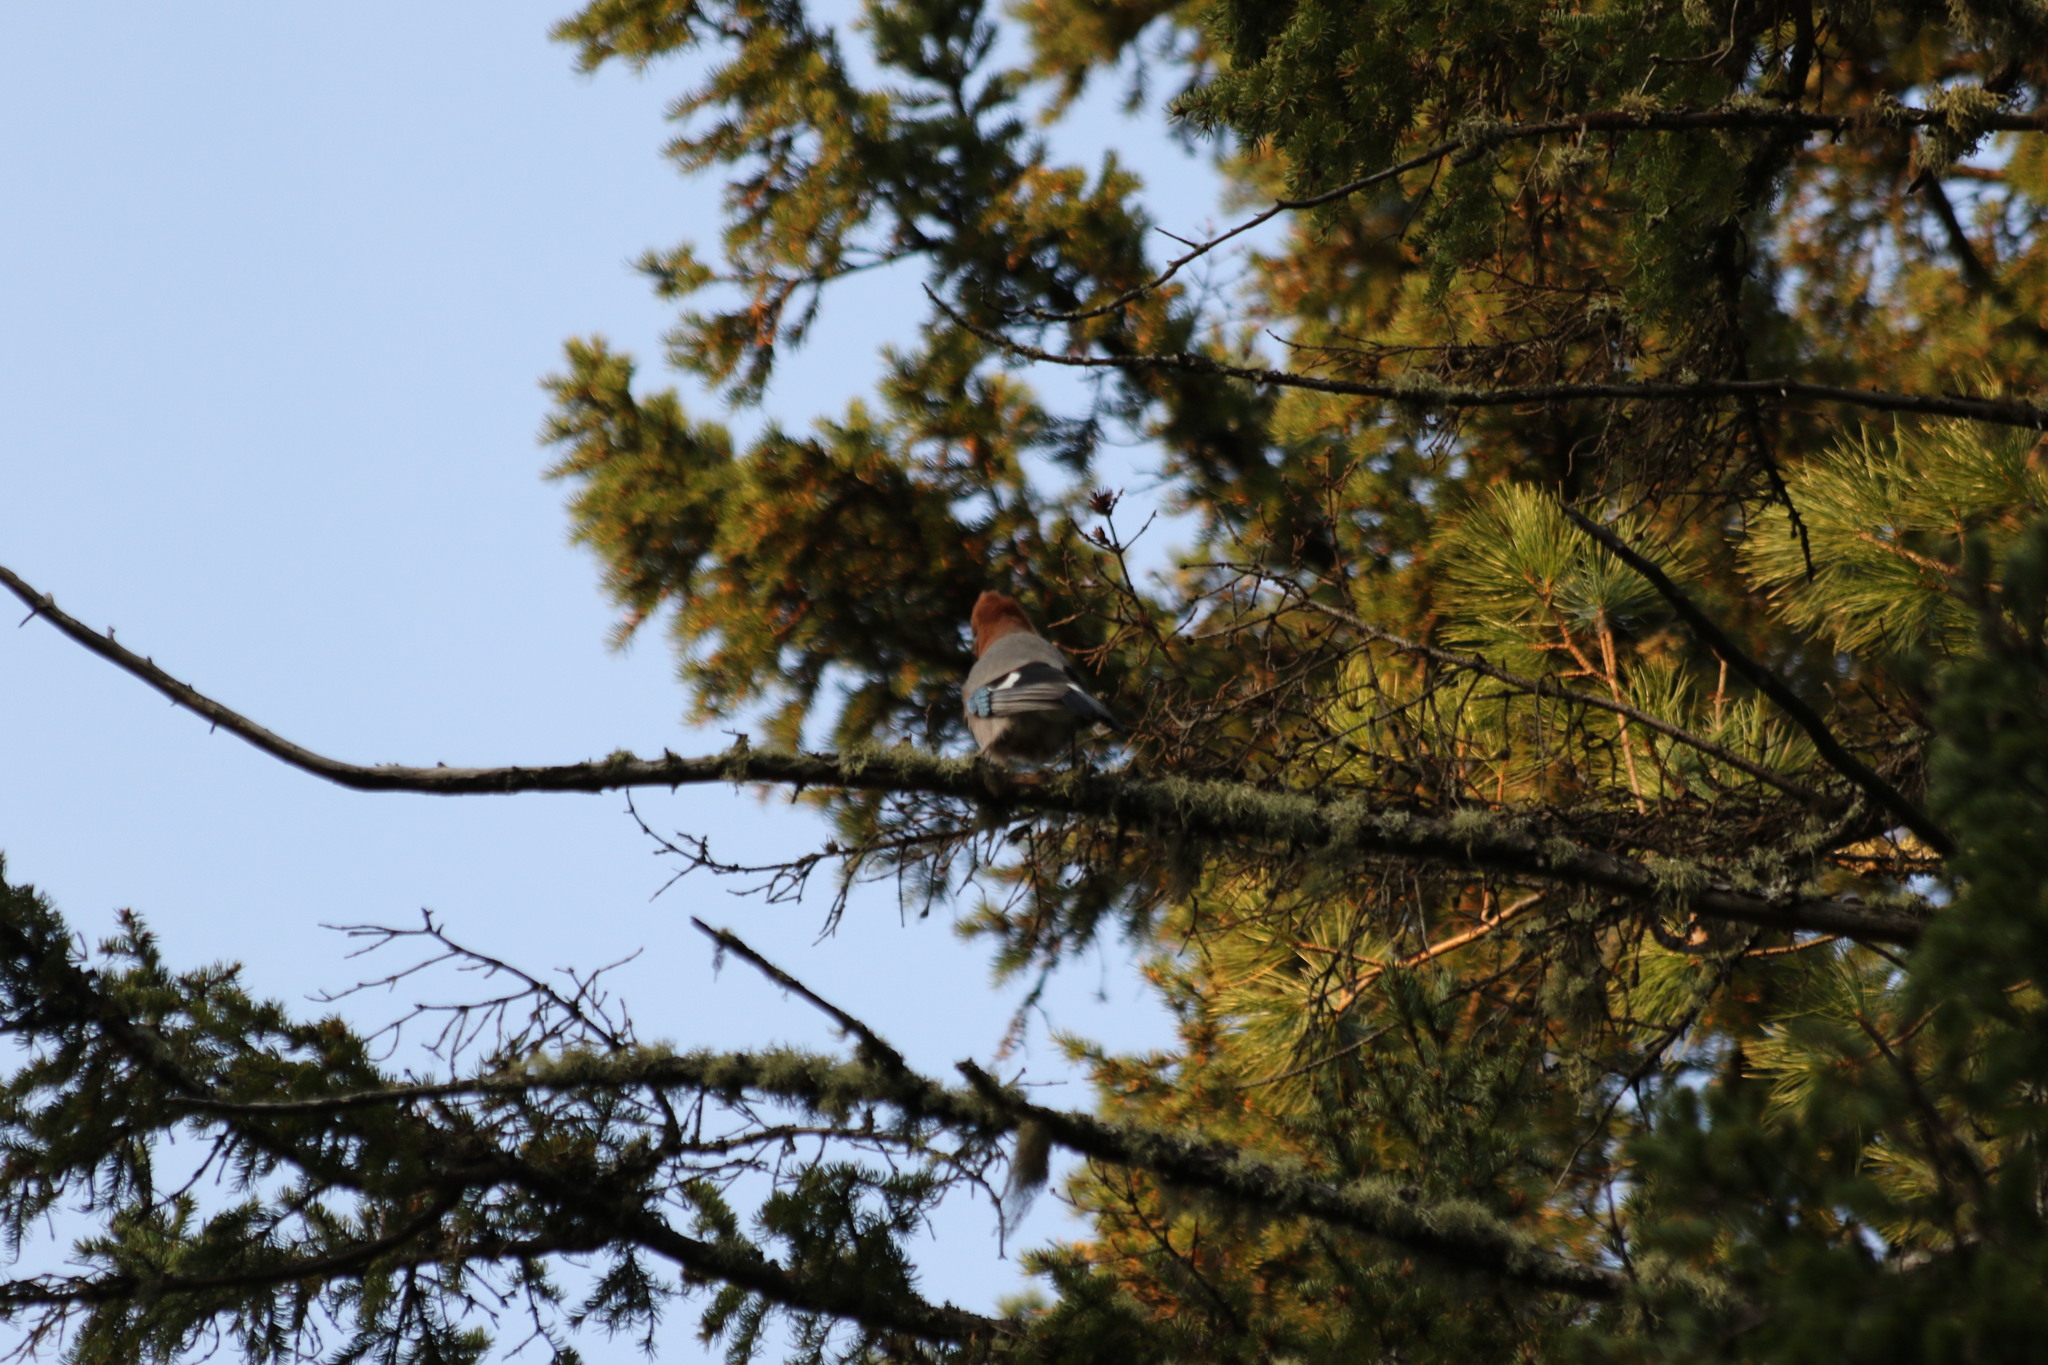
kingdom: Animalia
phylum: Chordata
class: Aves
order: Passeriformes
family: Corvidae
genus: Garrulus
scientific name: Garrulus glandarius
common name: Eurasian jay
